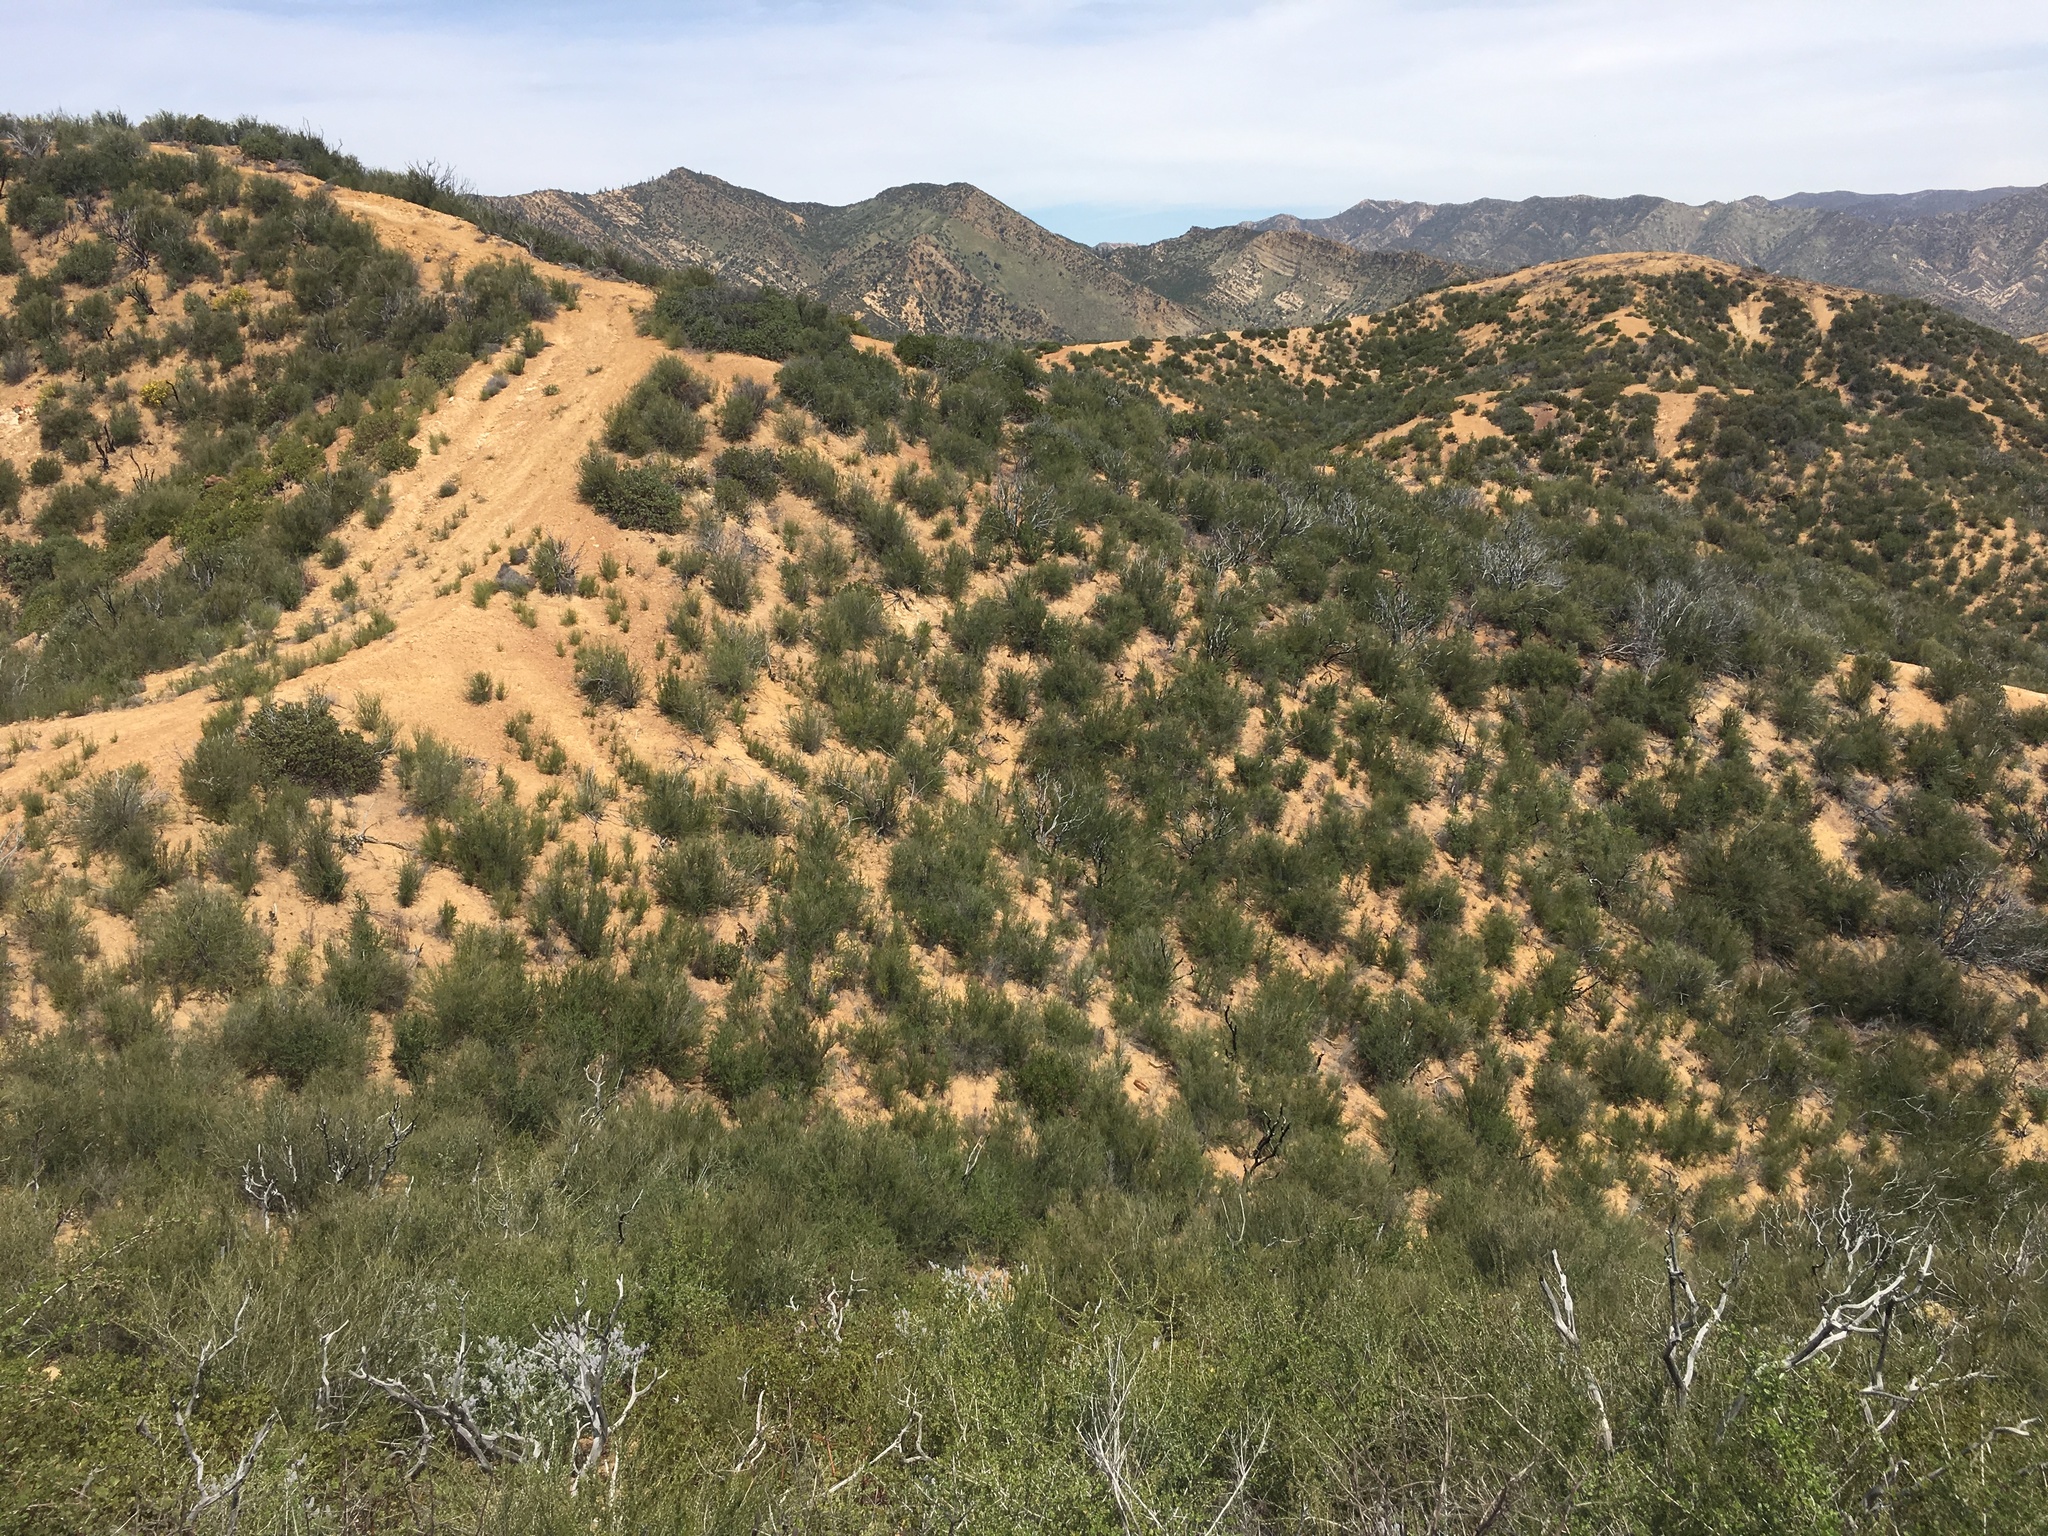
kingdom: Plantae
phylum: Tracheophyta
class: Magnoliopsida
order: Rosales
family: Rosaceae
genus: Adenostoma
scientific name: Adenostoma fasciculatum
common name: Chamise
